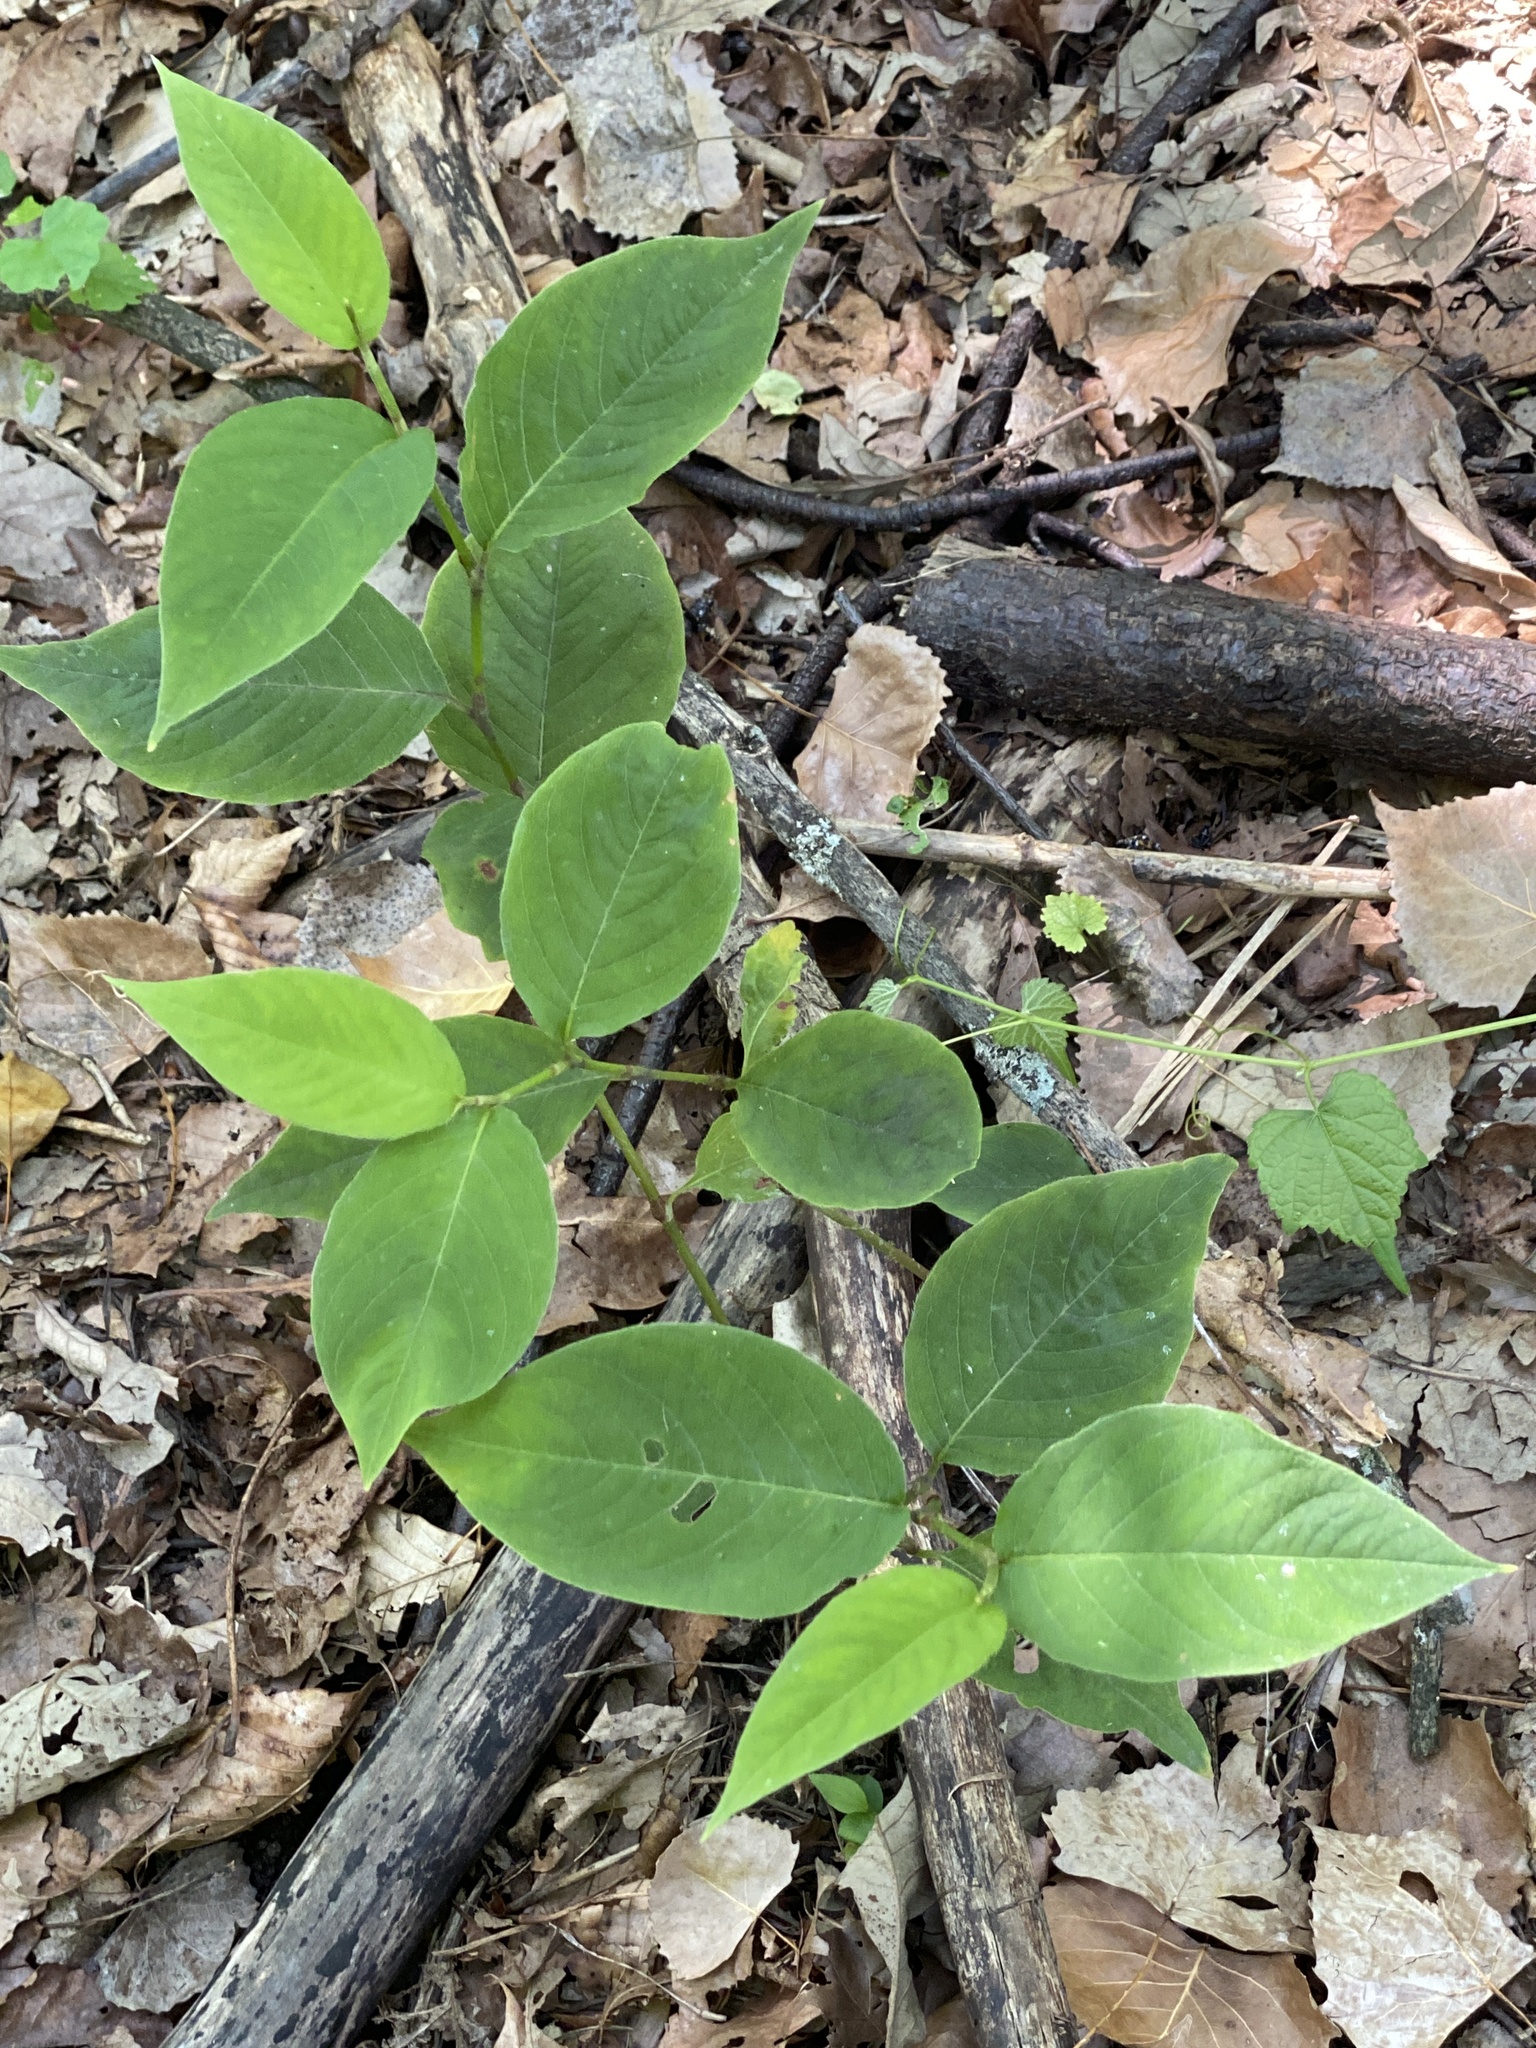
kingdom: Plantae
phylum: Tracheophyta
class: Magnoliopsida
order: Caryophyllales
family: Polygonaceae
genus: Persicaria
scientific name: Persicaria virginiana
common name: Jumpseed
